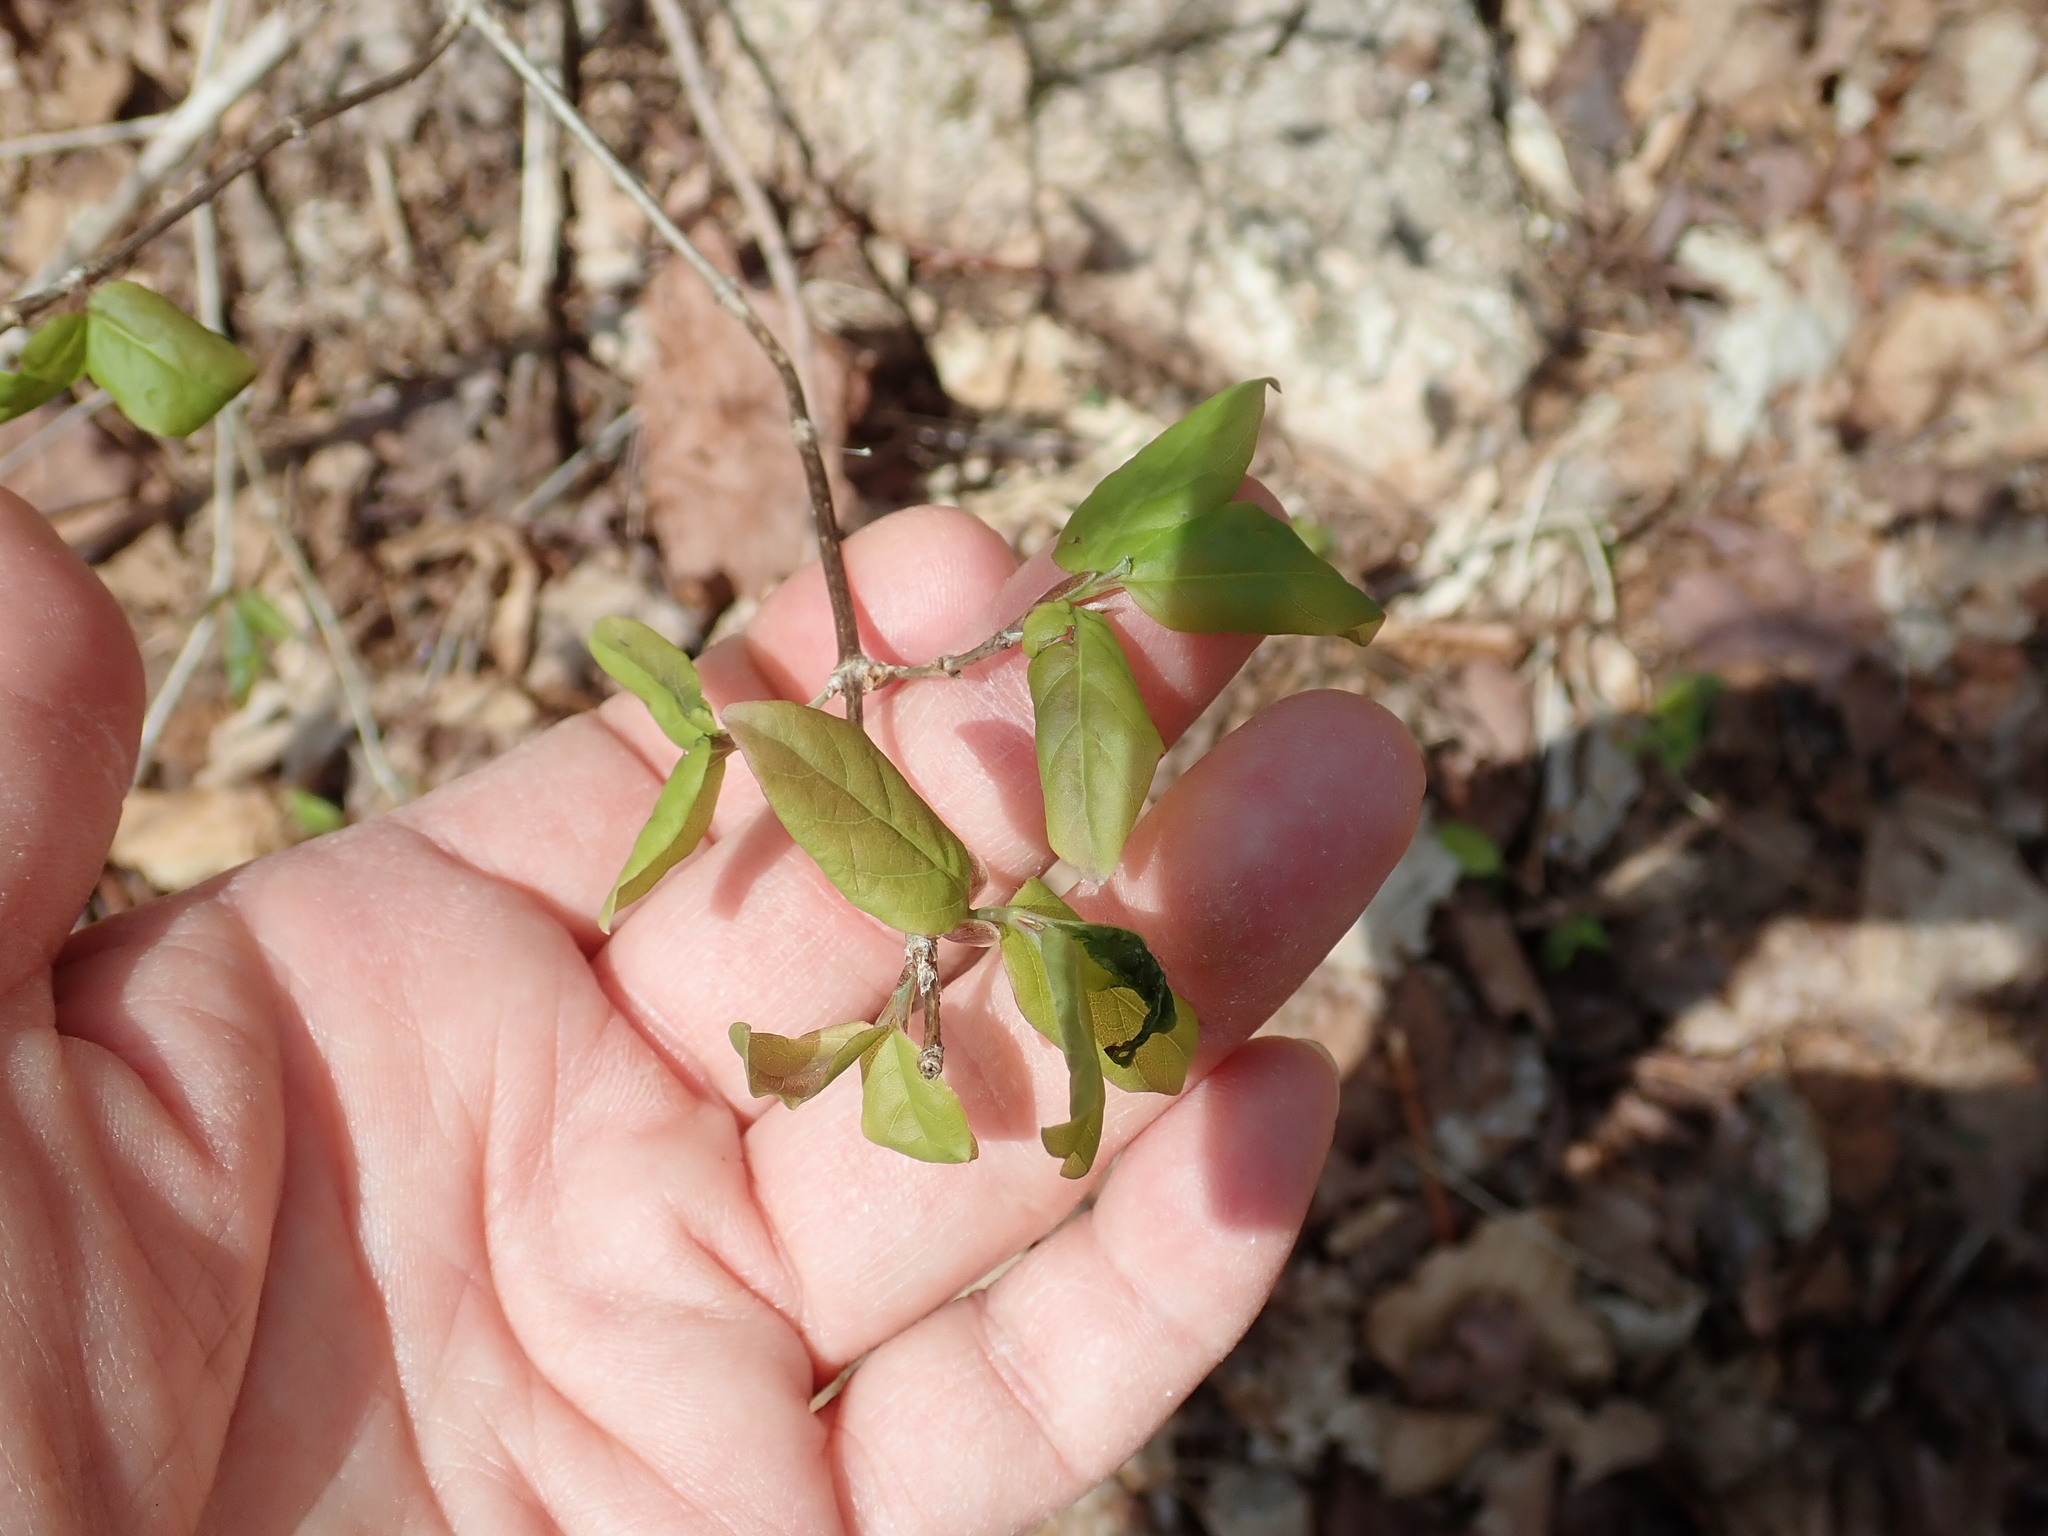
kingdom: Plantae
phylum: Tracheophyta
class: Magnoliopsida
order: Dipsacales
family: Caprifoliaceae
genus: Lonicera
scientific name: Lonicera canadensis
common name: American fly-honeysuckle
